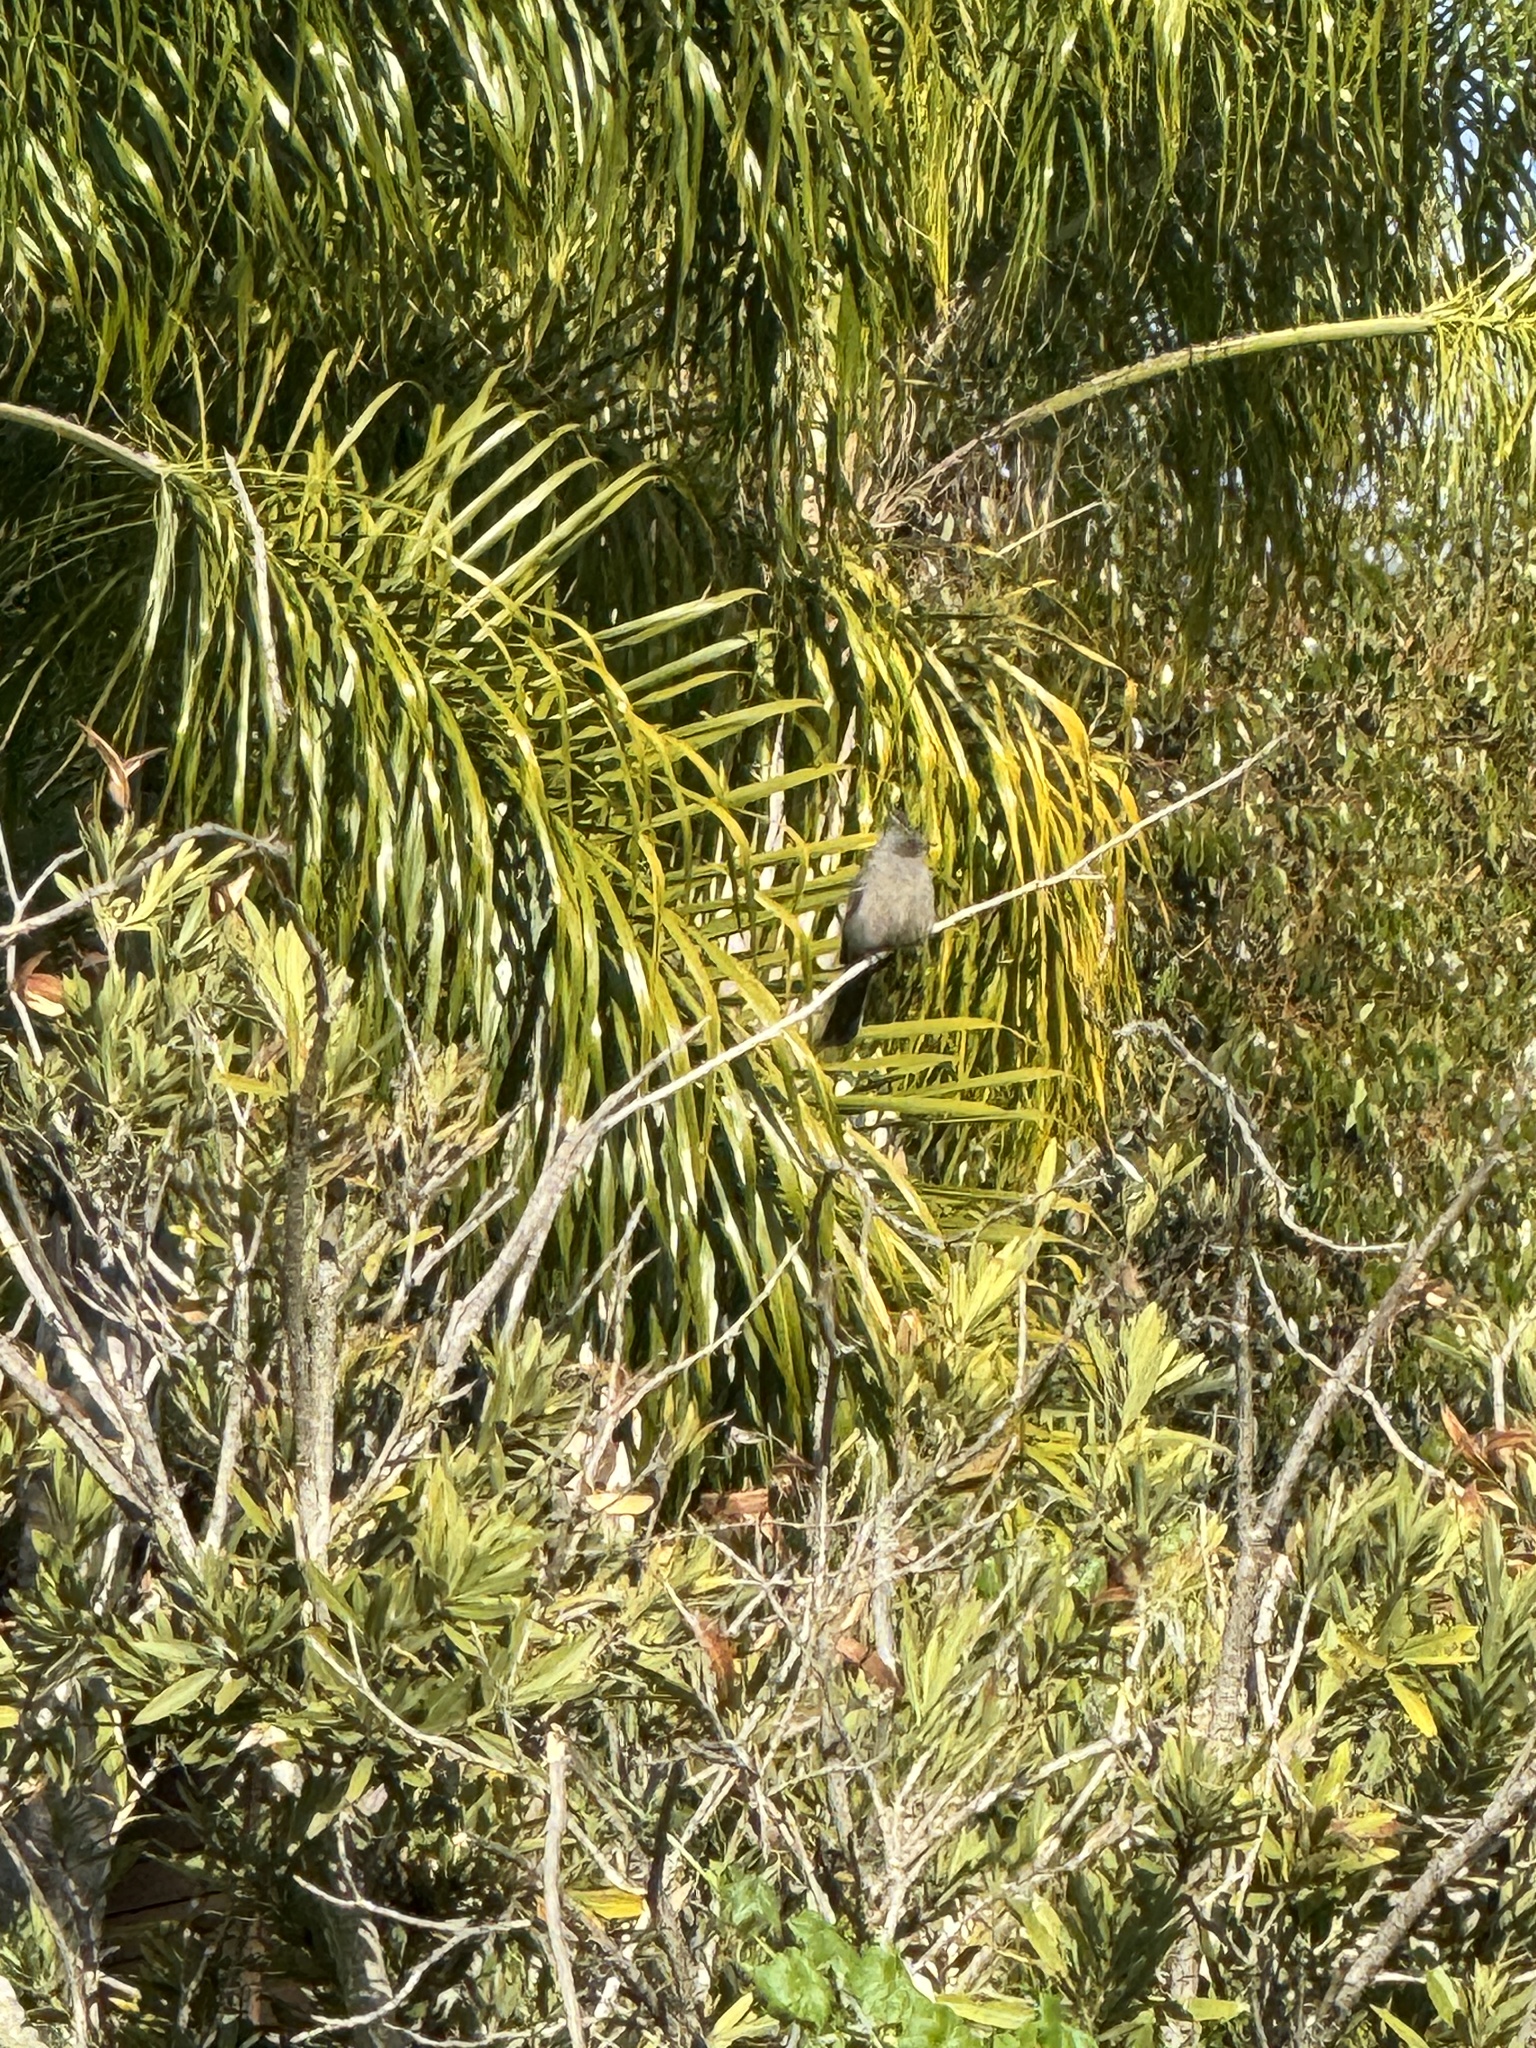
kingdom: Animalia
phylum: Chordata
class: Aves
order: Passeriformes
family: Mimidae
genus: Mimus
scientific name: Mimus polyglottos
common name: Northern mockingbird
